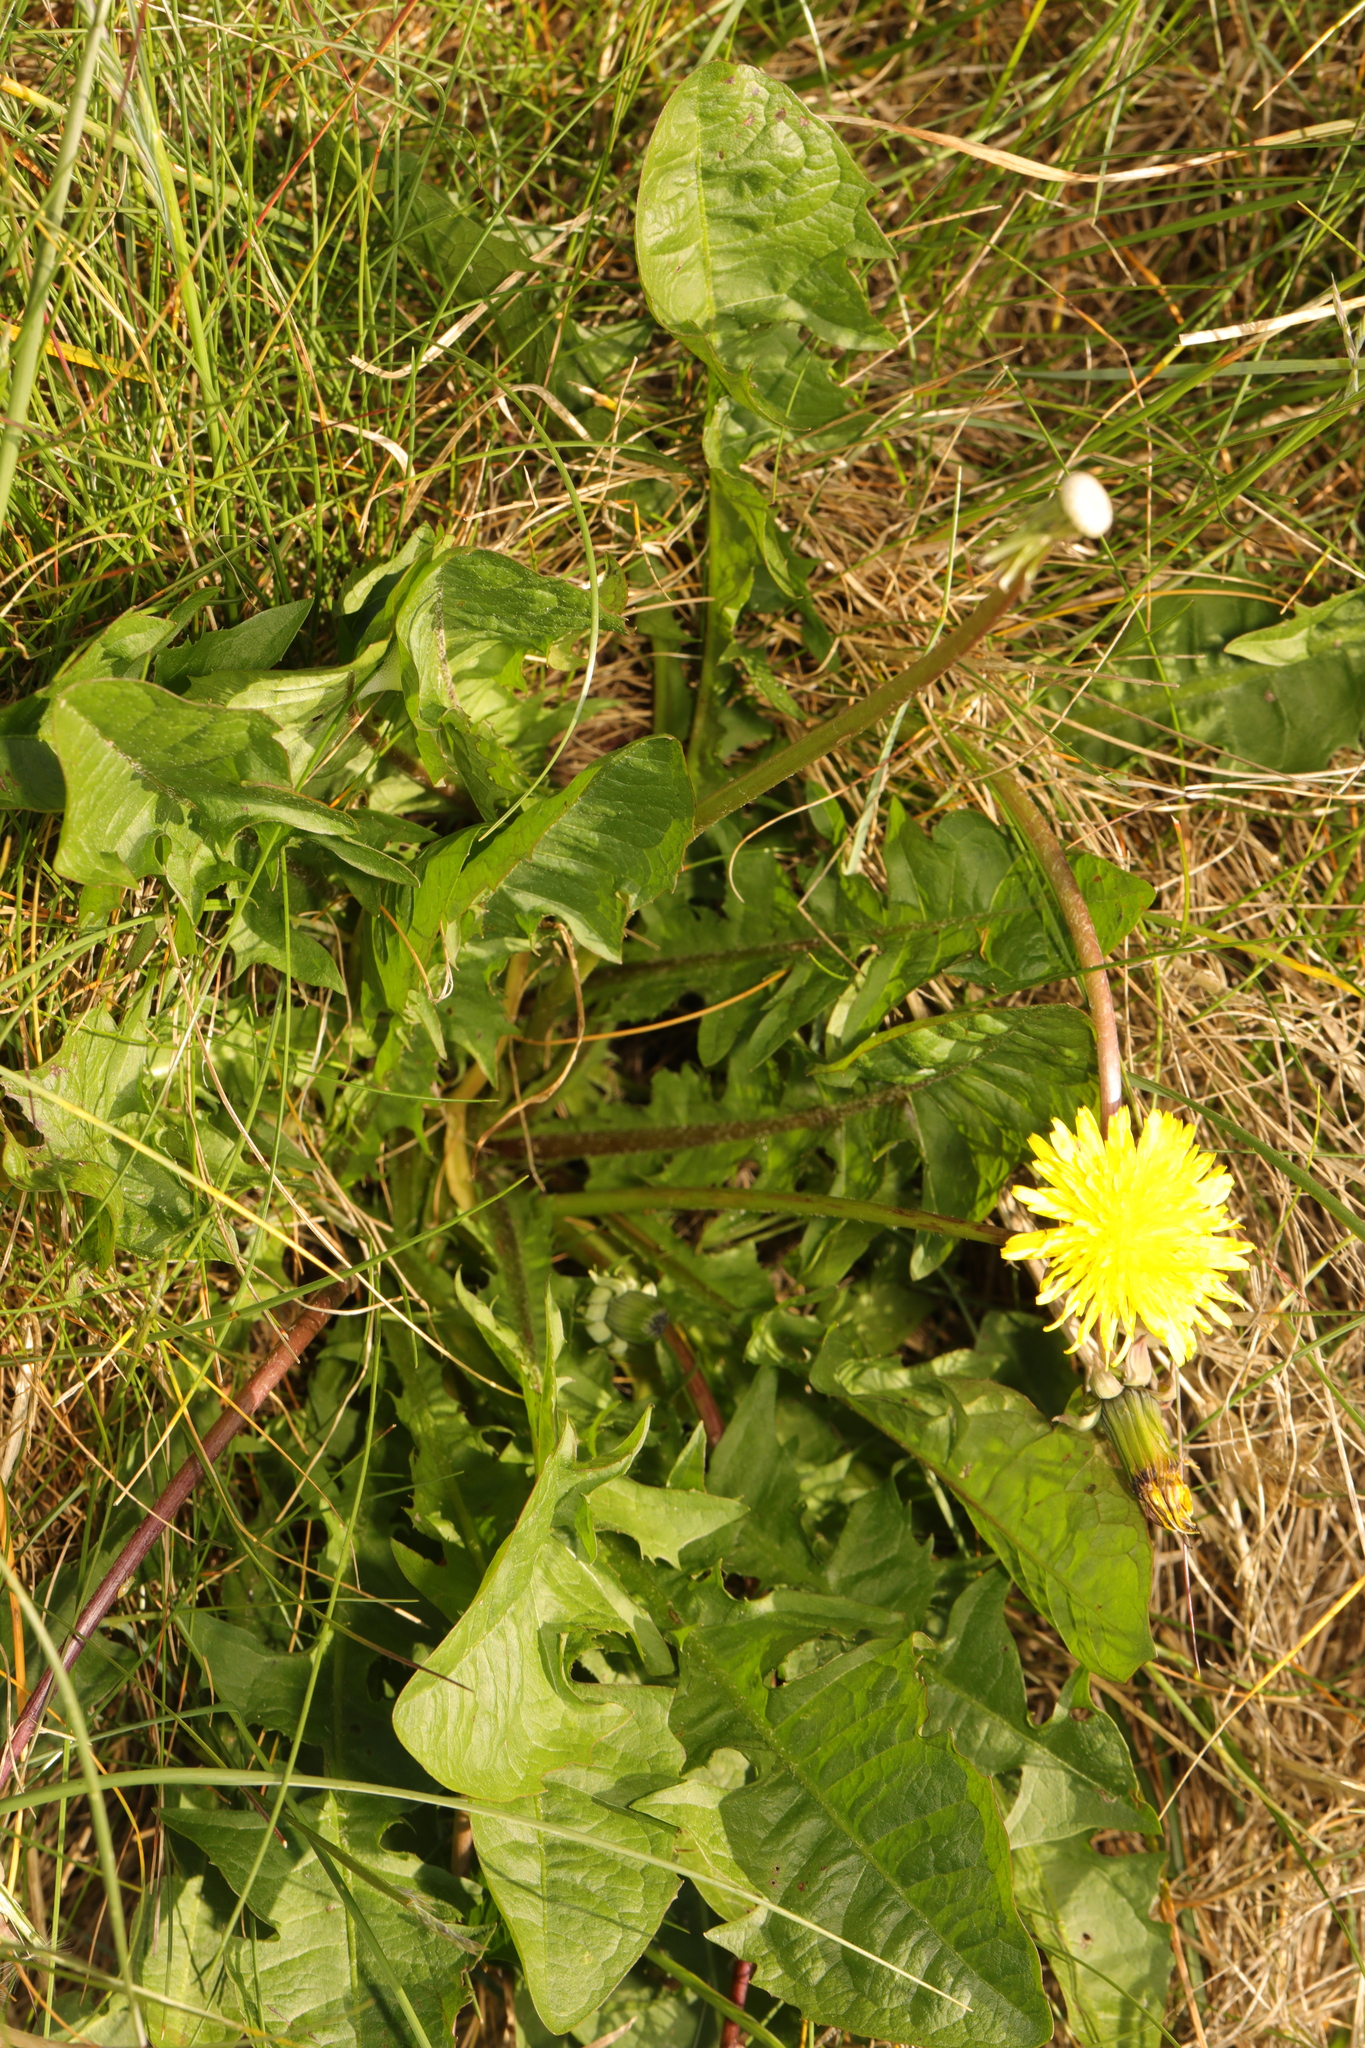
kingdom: Plantae
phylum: Tracheophyta
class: Magnoliopsida
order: Asterales
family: Asteraceae
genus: Taraxacum
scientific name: Taraxacum officinale
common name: Common dandelion
